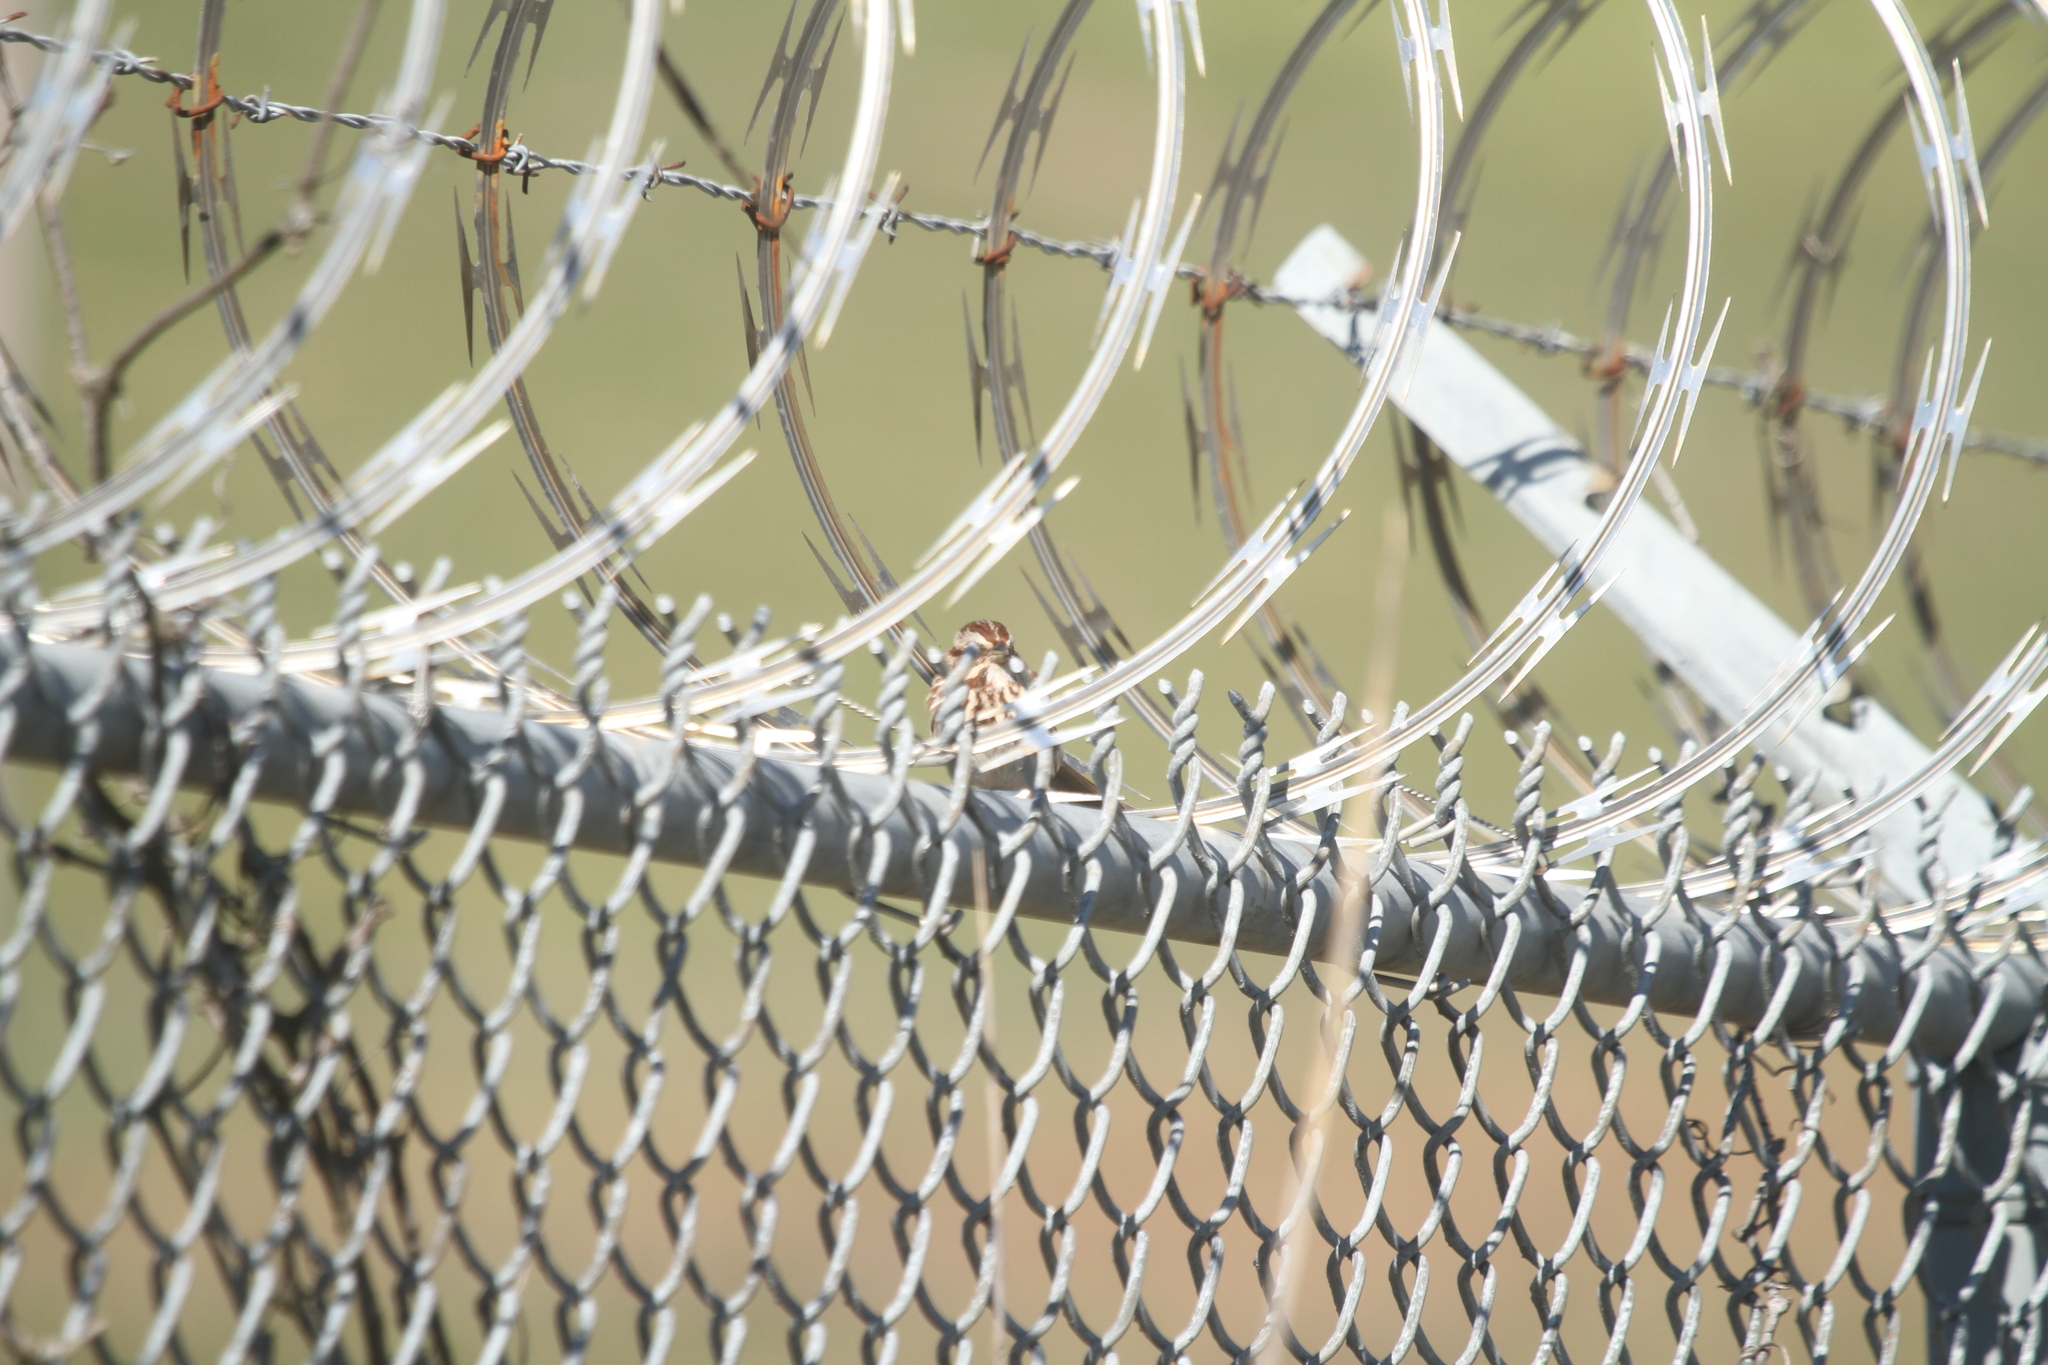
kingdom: Animalia
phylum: Chordata
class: Aves
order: Passeriformes
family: Passerellidae
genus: Melospiza
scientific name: Melospiza melodia
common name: Song sparrow
